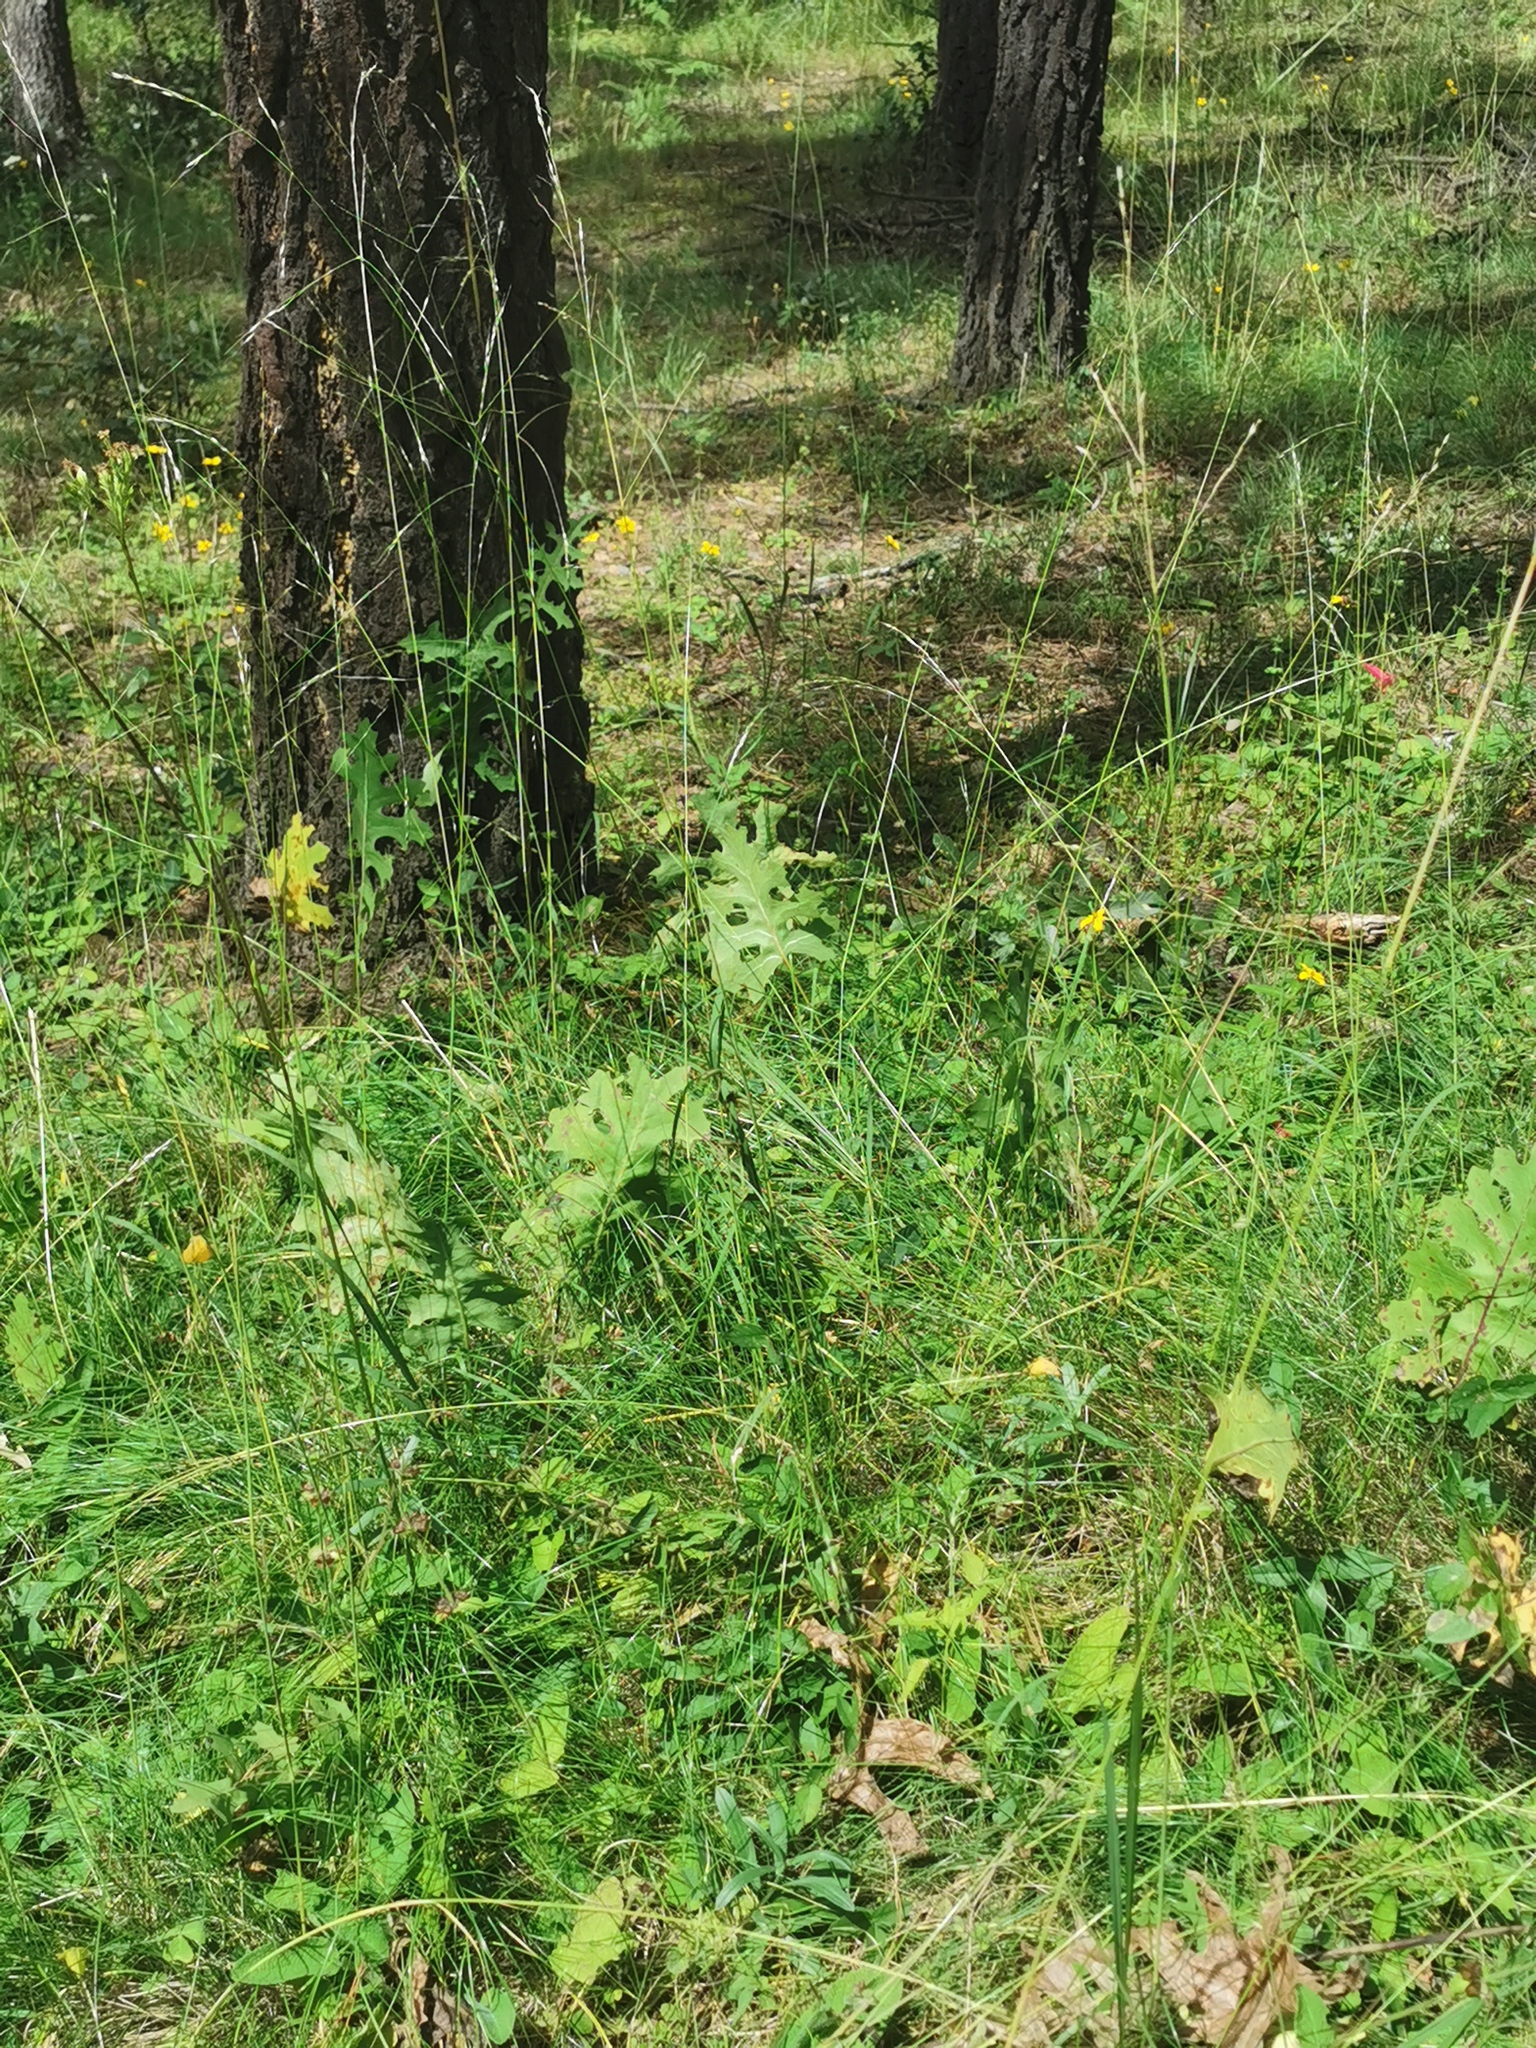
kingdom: Plantae
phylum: Tracheophyta
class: Magnoliopsida
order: Asterales
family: Asteraceae
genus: Psacalium
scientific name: Psacalium sinuatum
